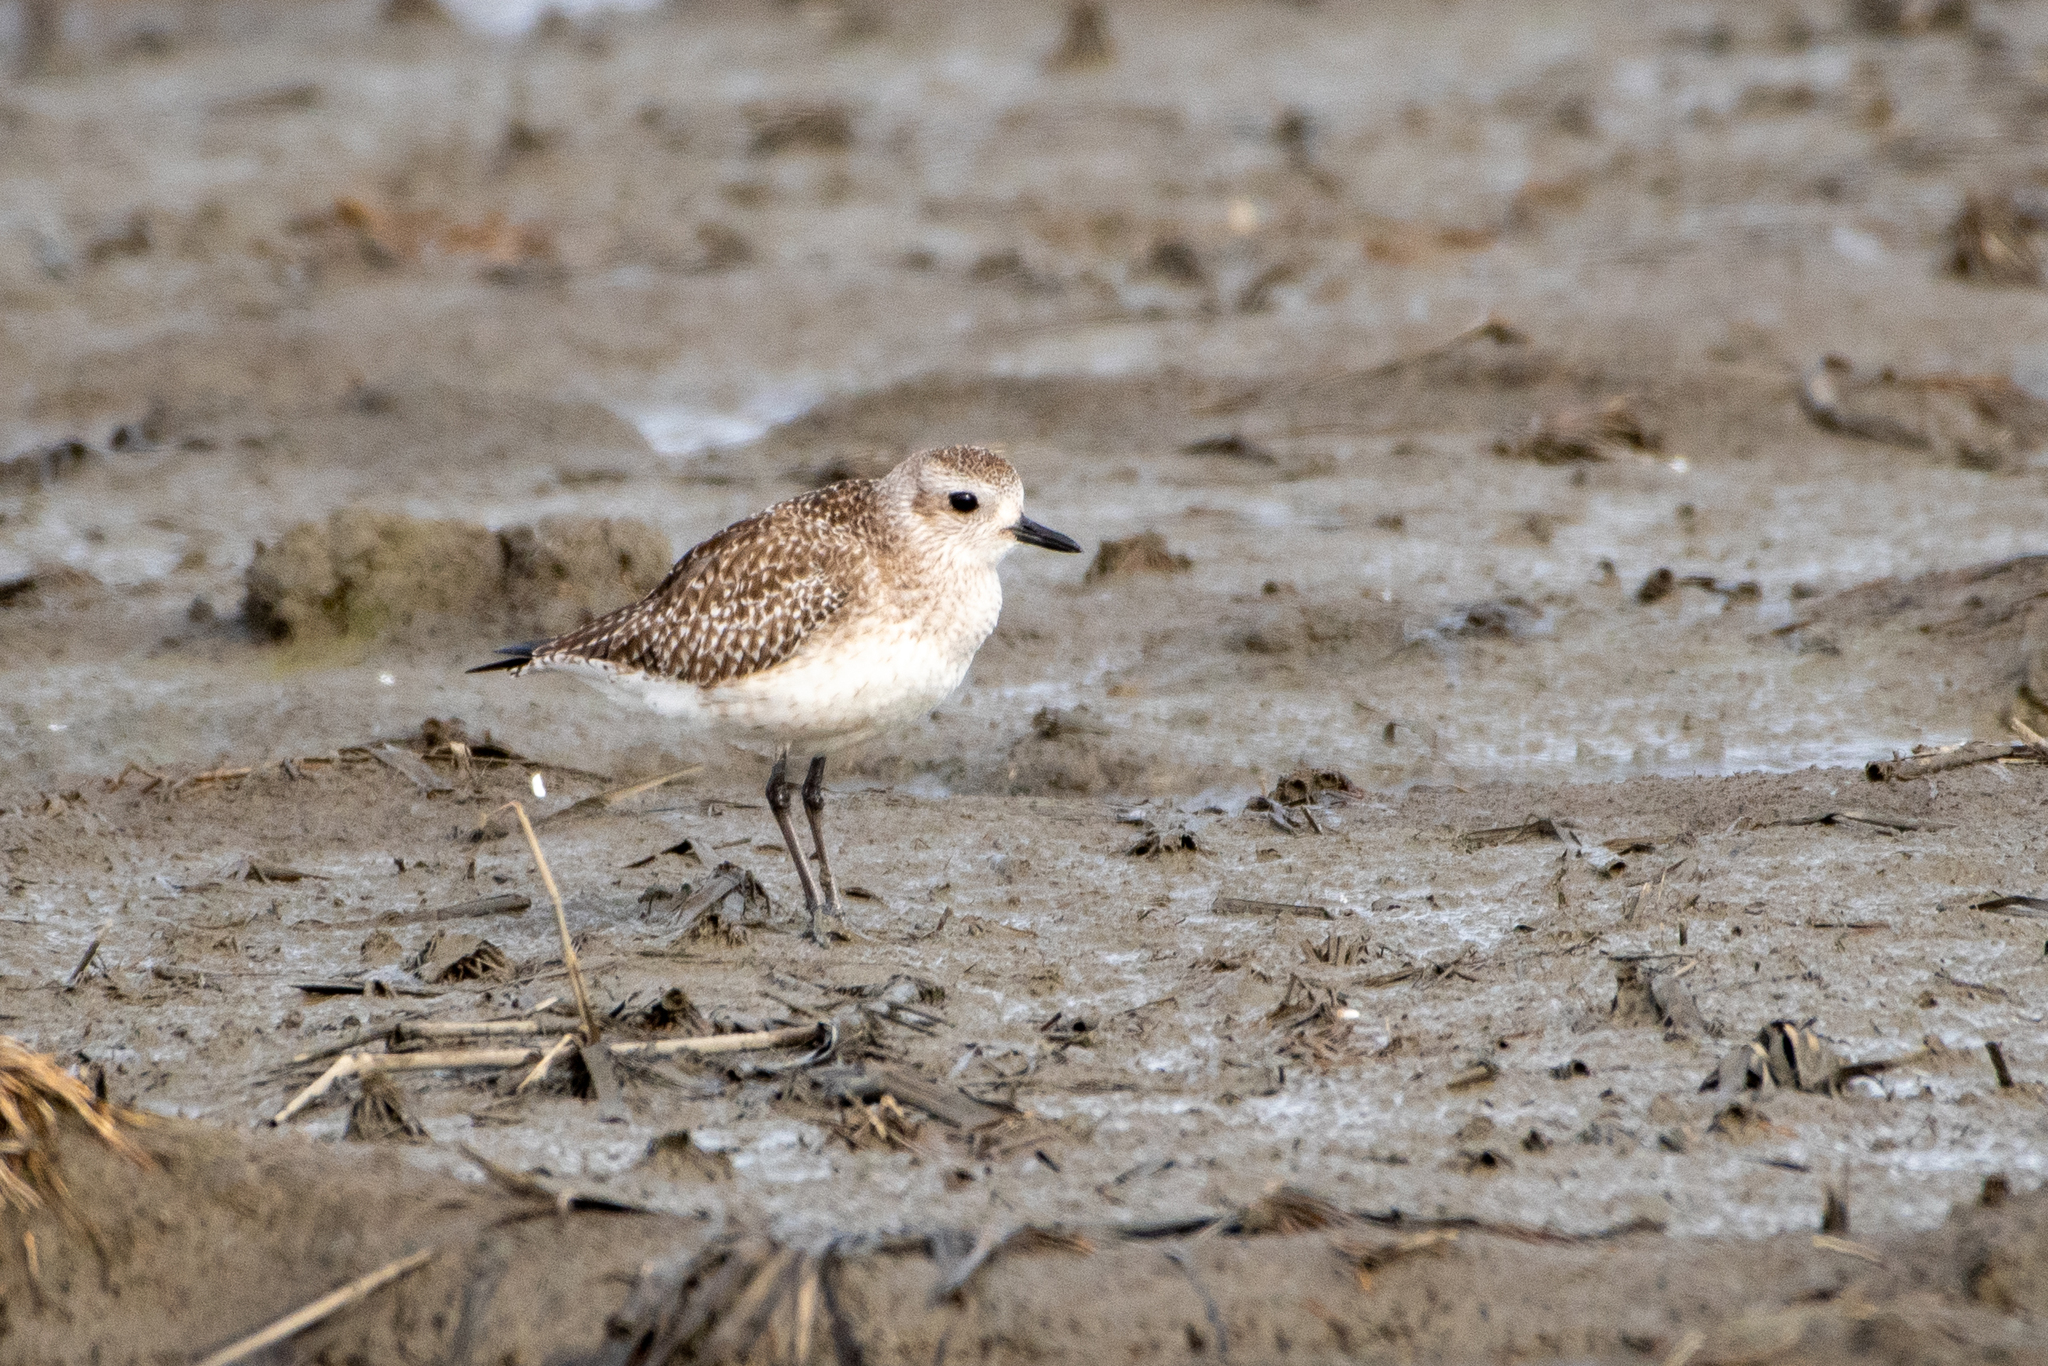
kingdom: Animalia
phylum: Chordata
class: Aves
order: Charadriiformes
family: Charadriidae
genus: Pluvialis
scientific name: Pluvialis squatarola
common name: Grey plover
